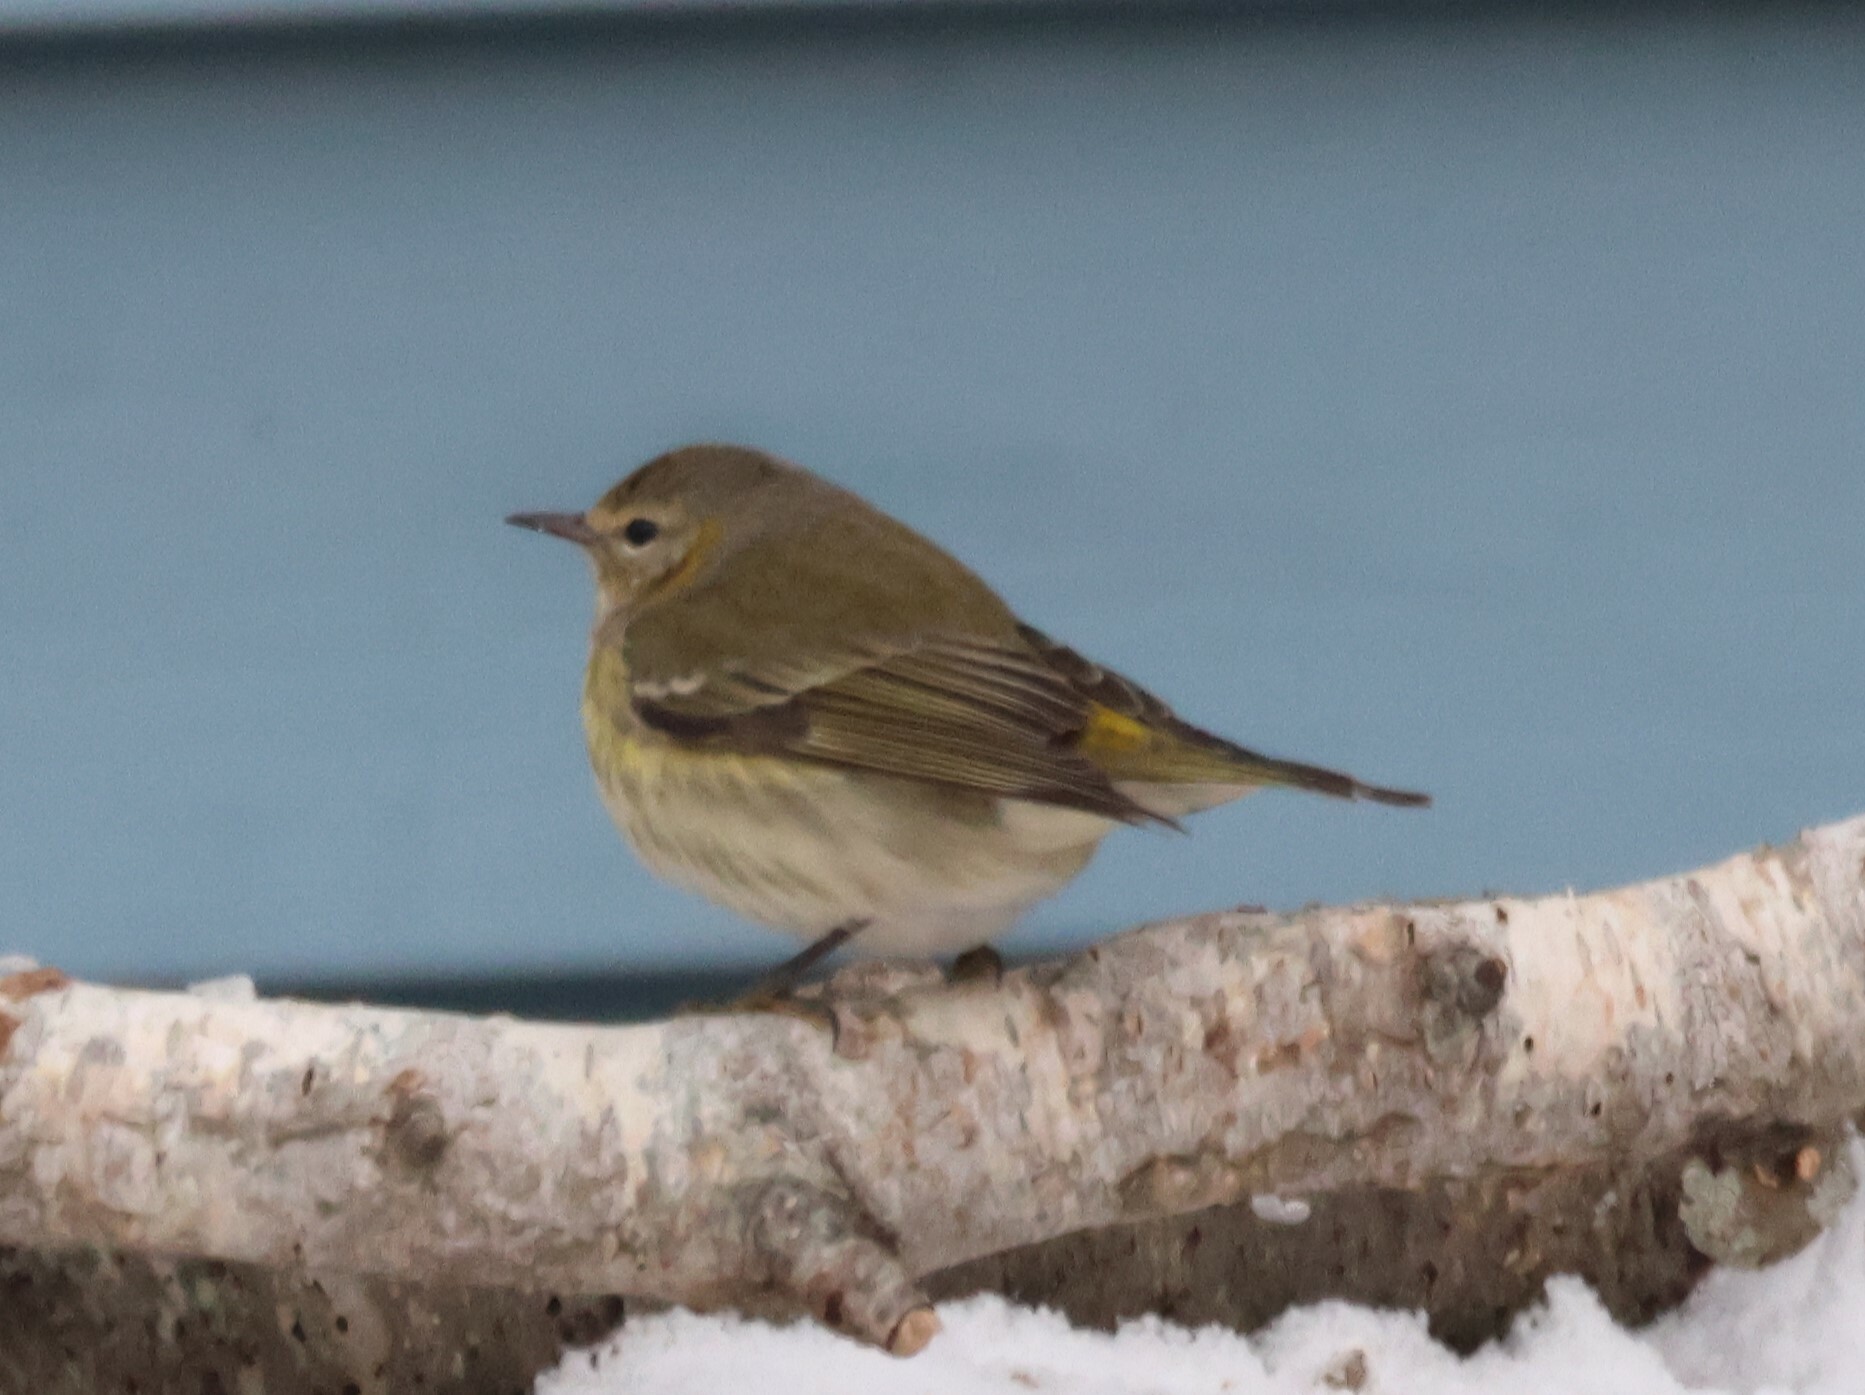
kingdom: Animalia
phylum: Chordata
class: Aves
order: Passeriformes
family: Parulidae
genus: Setophaga
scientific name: Setophaga tigrina
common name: Cape may warbler
